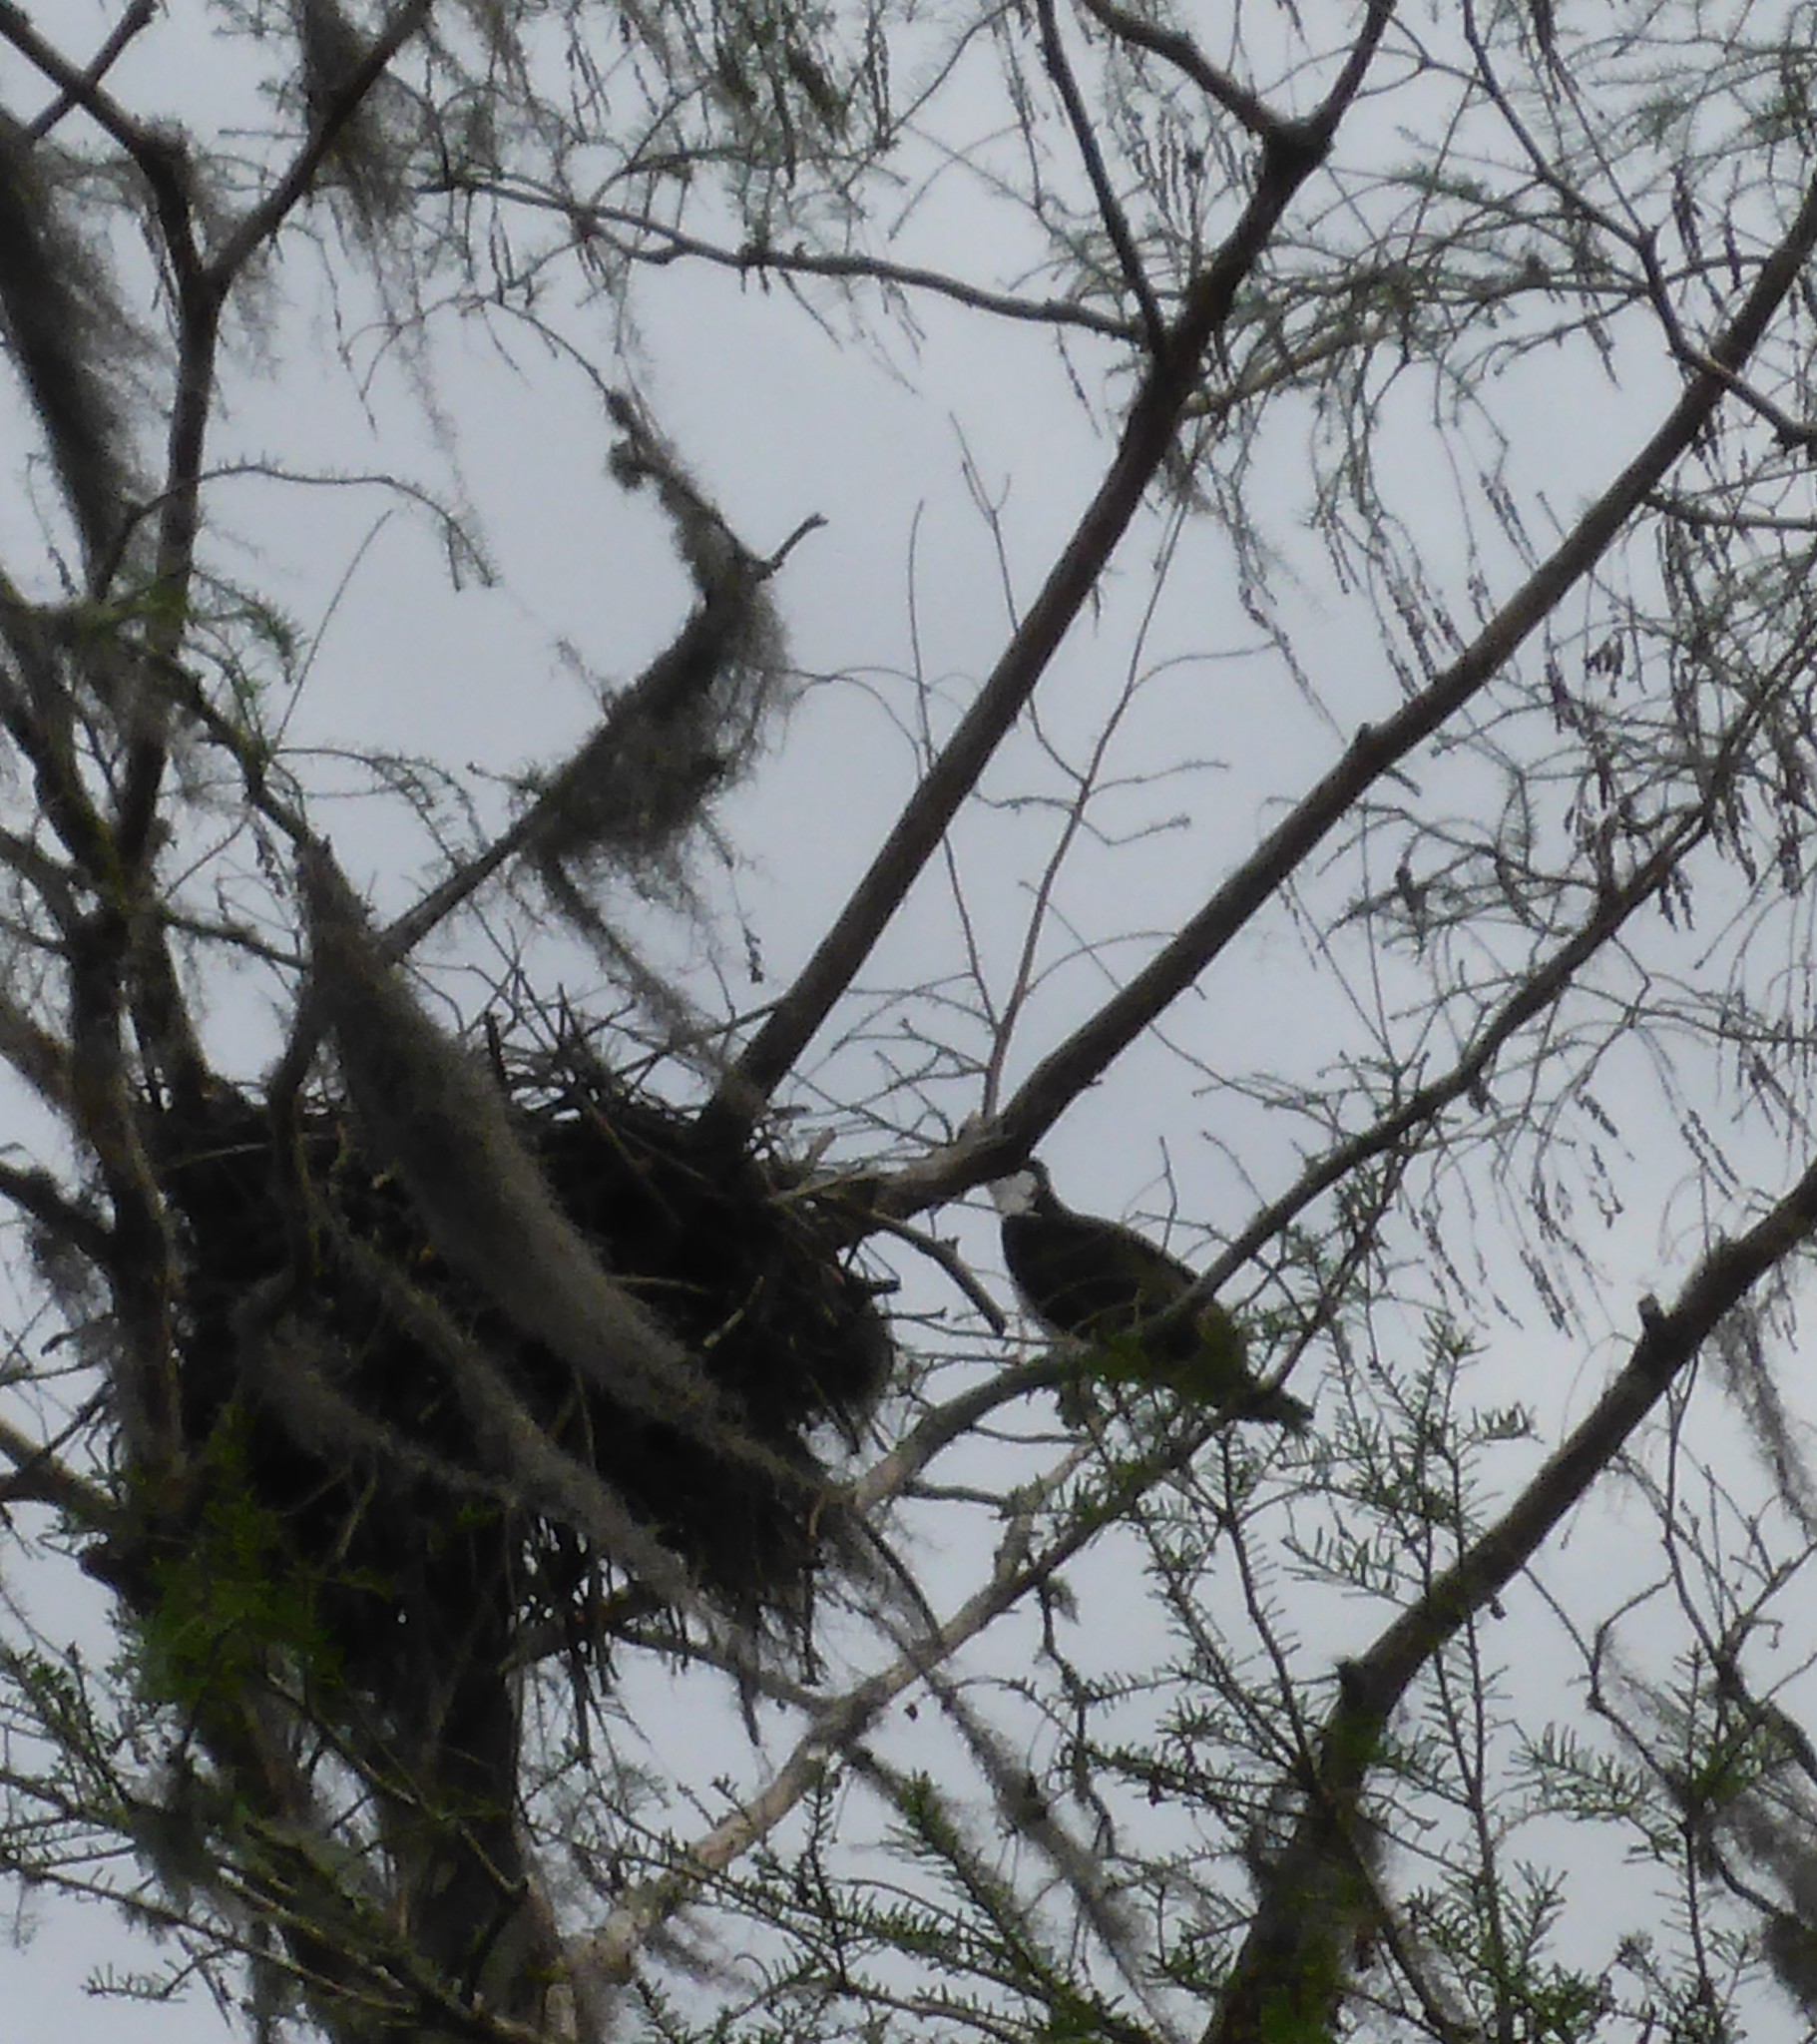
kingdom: Animalia
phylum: Chordata
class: Aves
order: Accipitriformes
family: Pandionidae
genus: Pandion
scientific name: Pandion haliaetus
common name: Osprey
